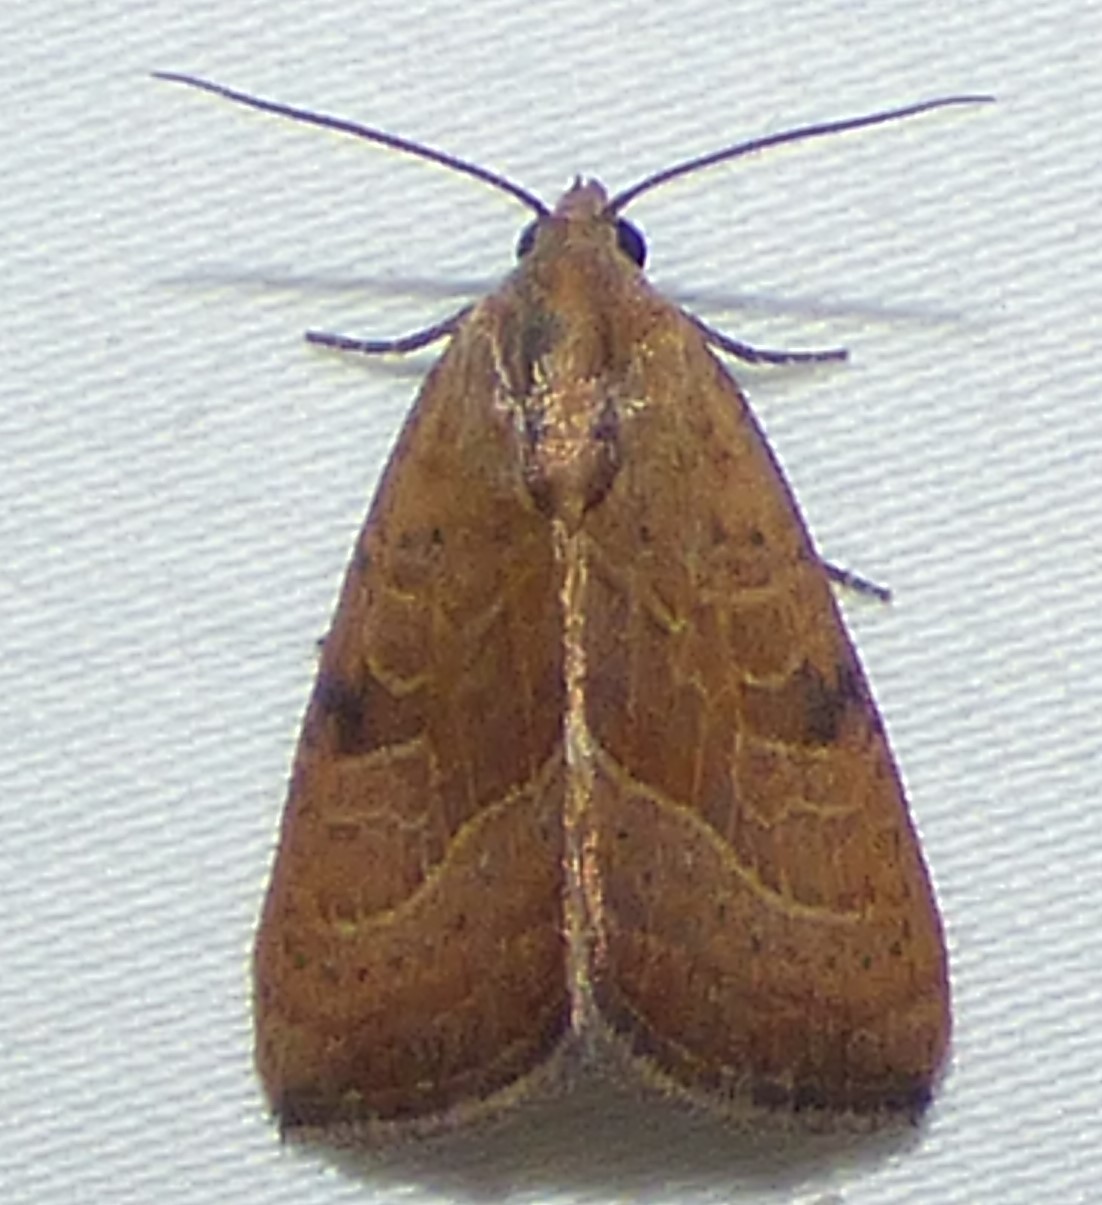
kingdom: Animalia
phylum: Arthropoda
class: Insecta
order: Lepidoptera
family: Noctuidae
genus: Galgula
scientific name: Galgula partita
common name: Wedgeling
